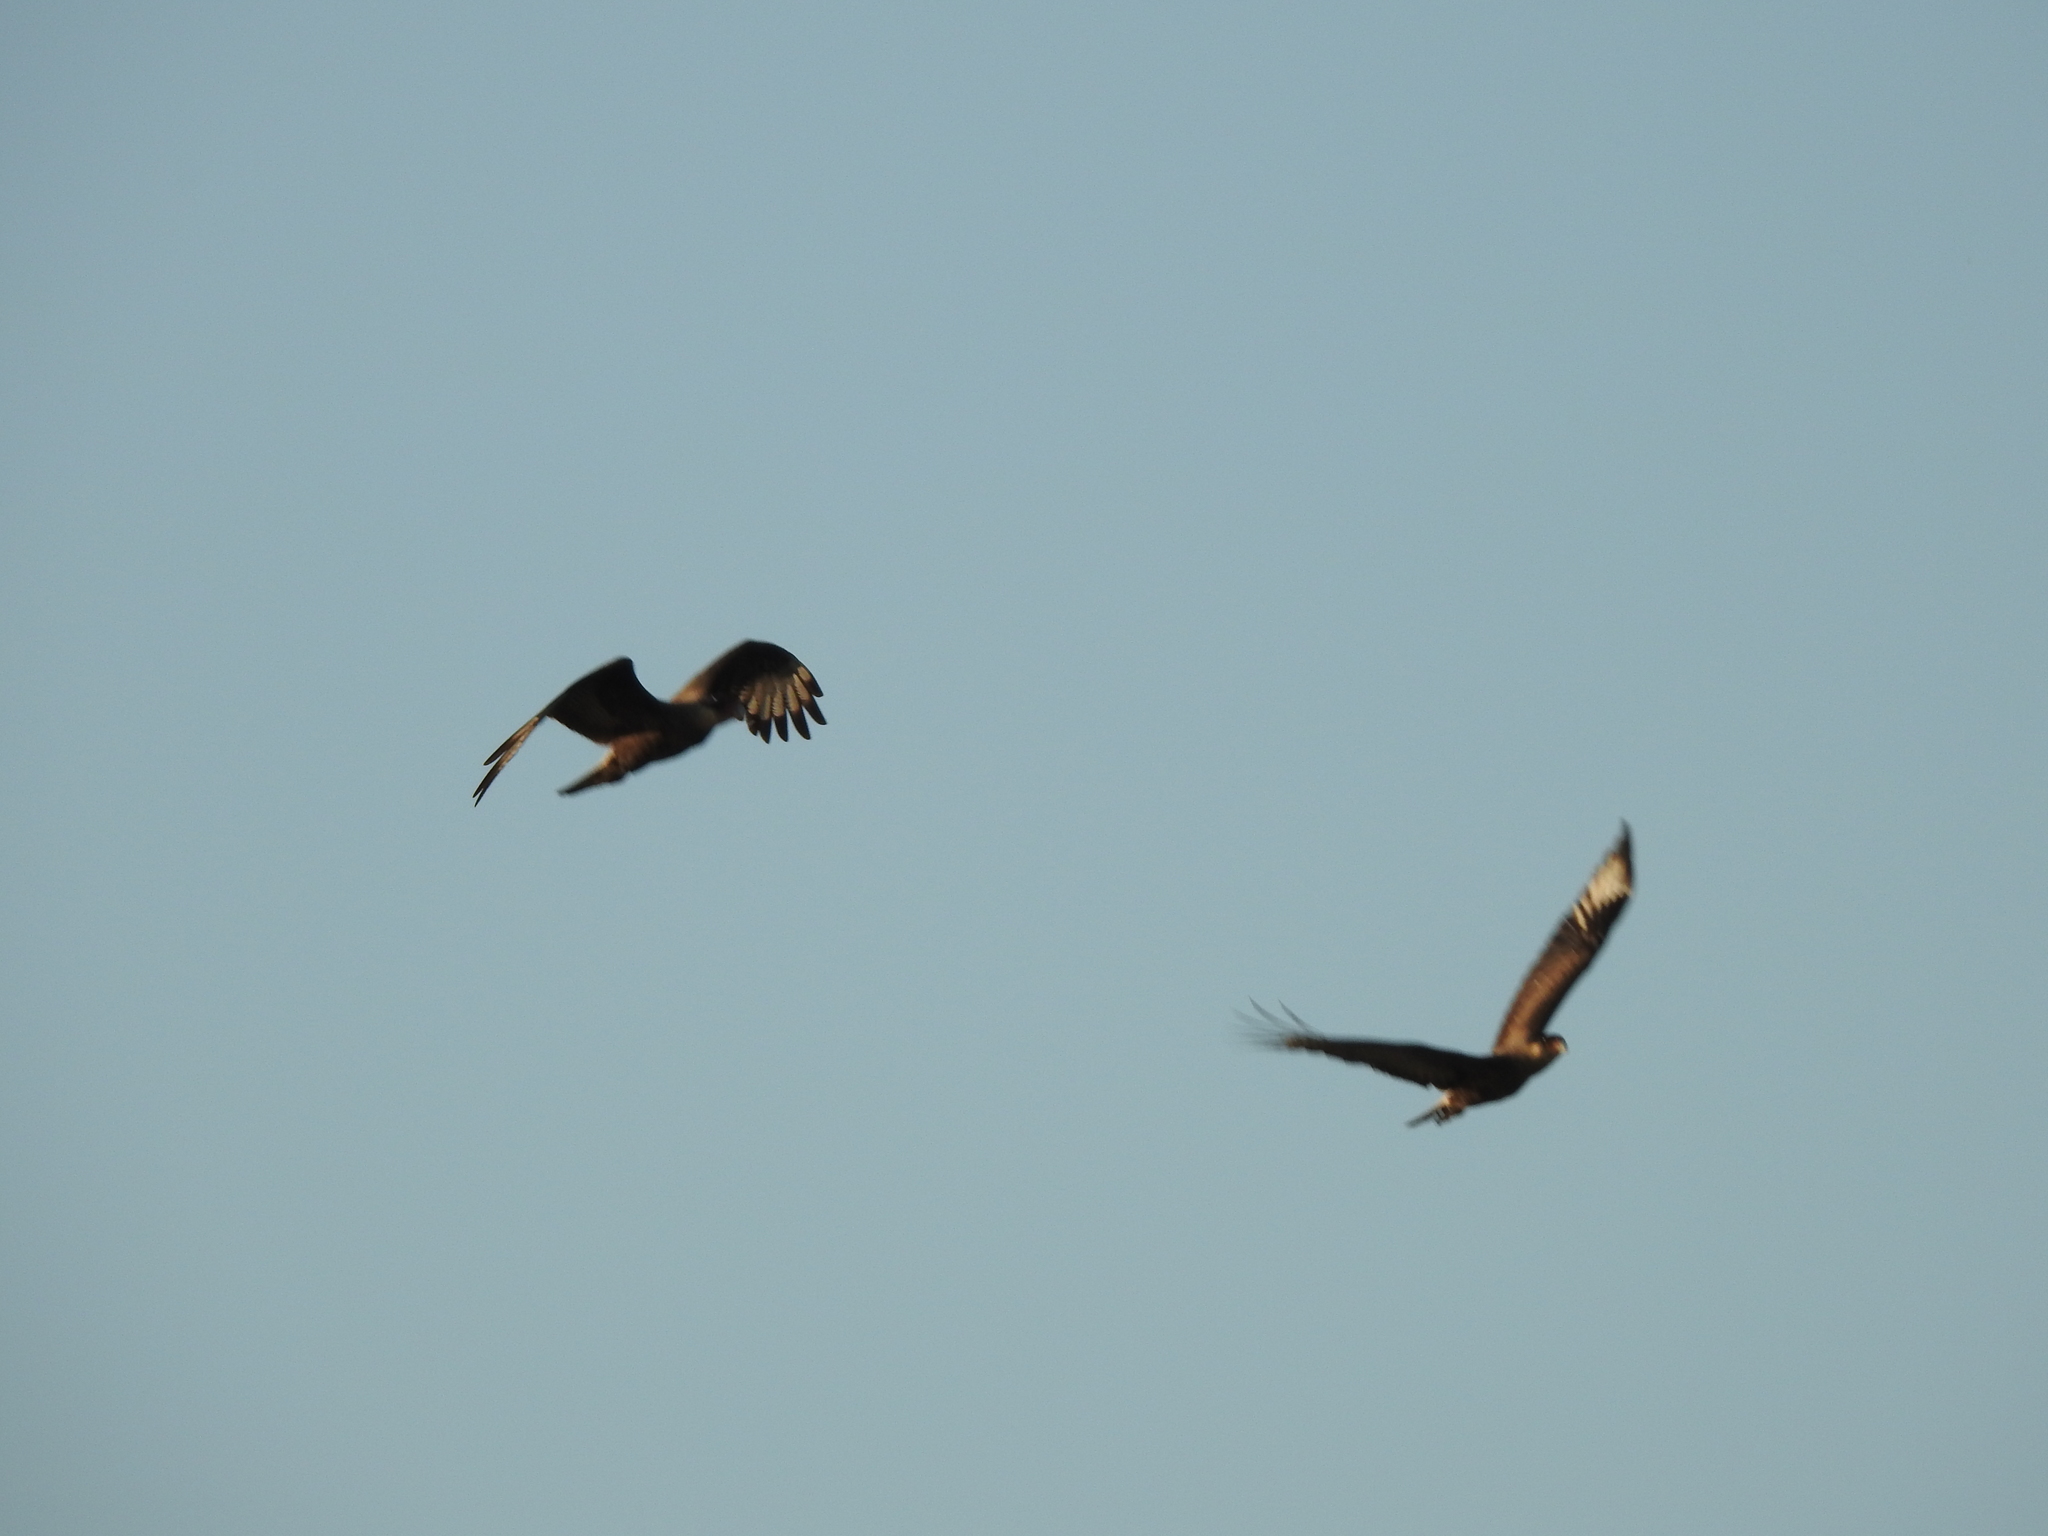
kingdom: Animalia
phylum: Chordata
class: Aves
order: Falconiformes
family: Falconidae
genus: Caracara
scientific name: Caracara plancus
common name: Southern caracara
